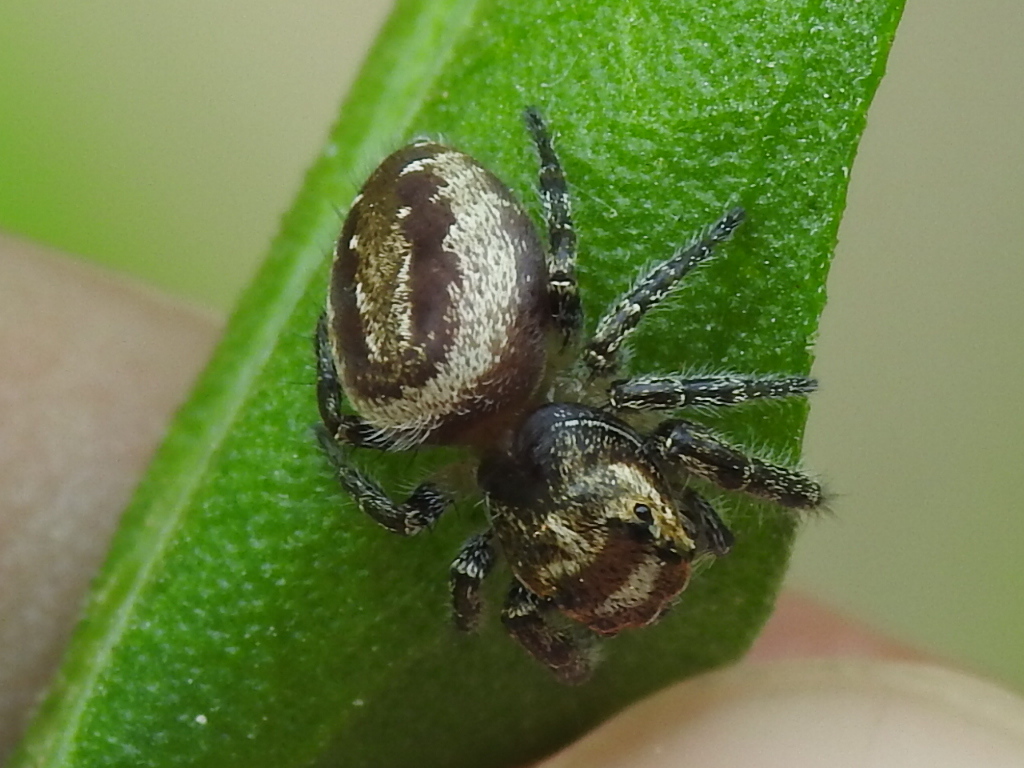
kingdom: Animalia
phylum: Arthropoda
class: Arachnida
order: Araneae
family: Salticidae
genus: Eris
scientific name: Eris militaris
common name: Bronze jumper
